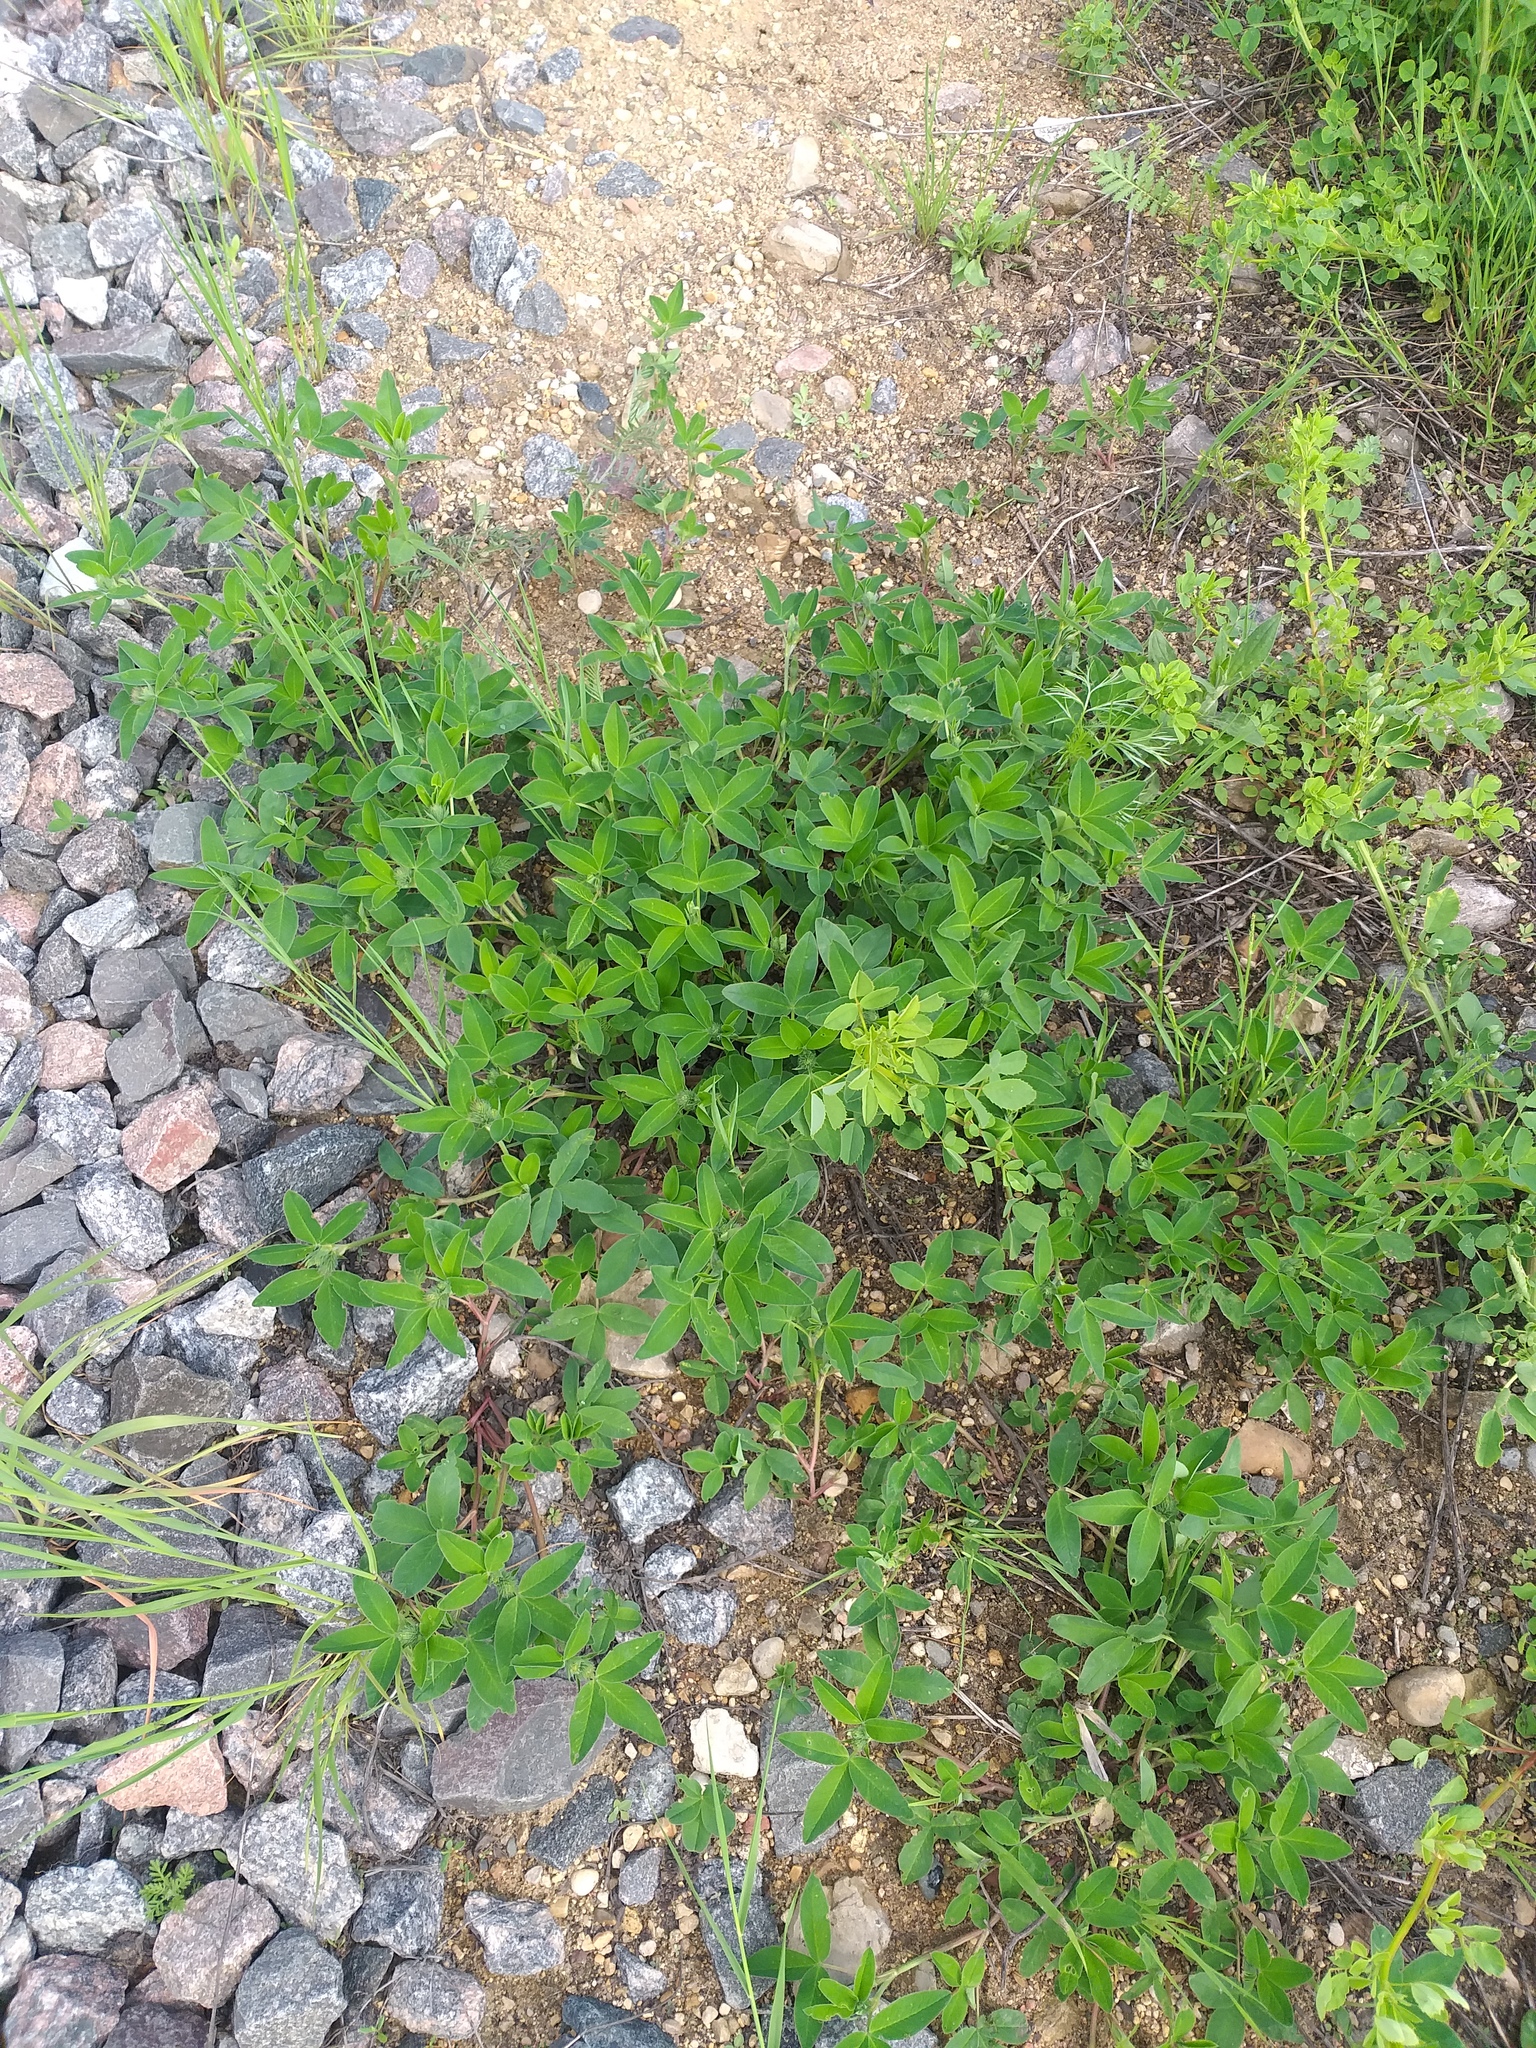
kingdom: Plantae
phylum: Tracheophyta
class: Magnoliopsida
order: Fabales
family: Fabaceae
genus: Trifolium
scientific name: Trifolium medium
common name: Zigzag clover
